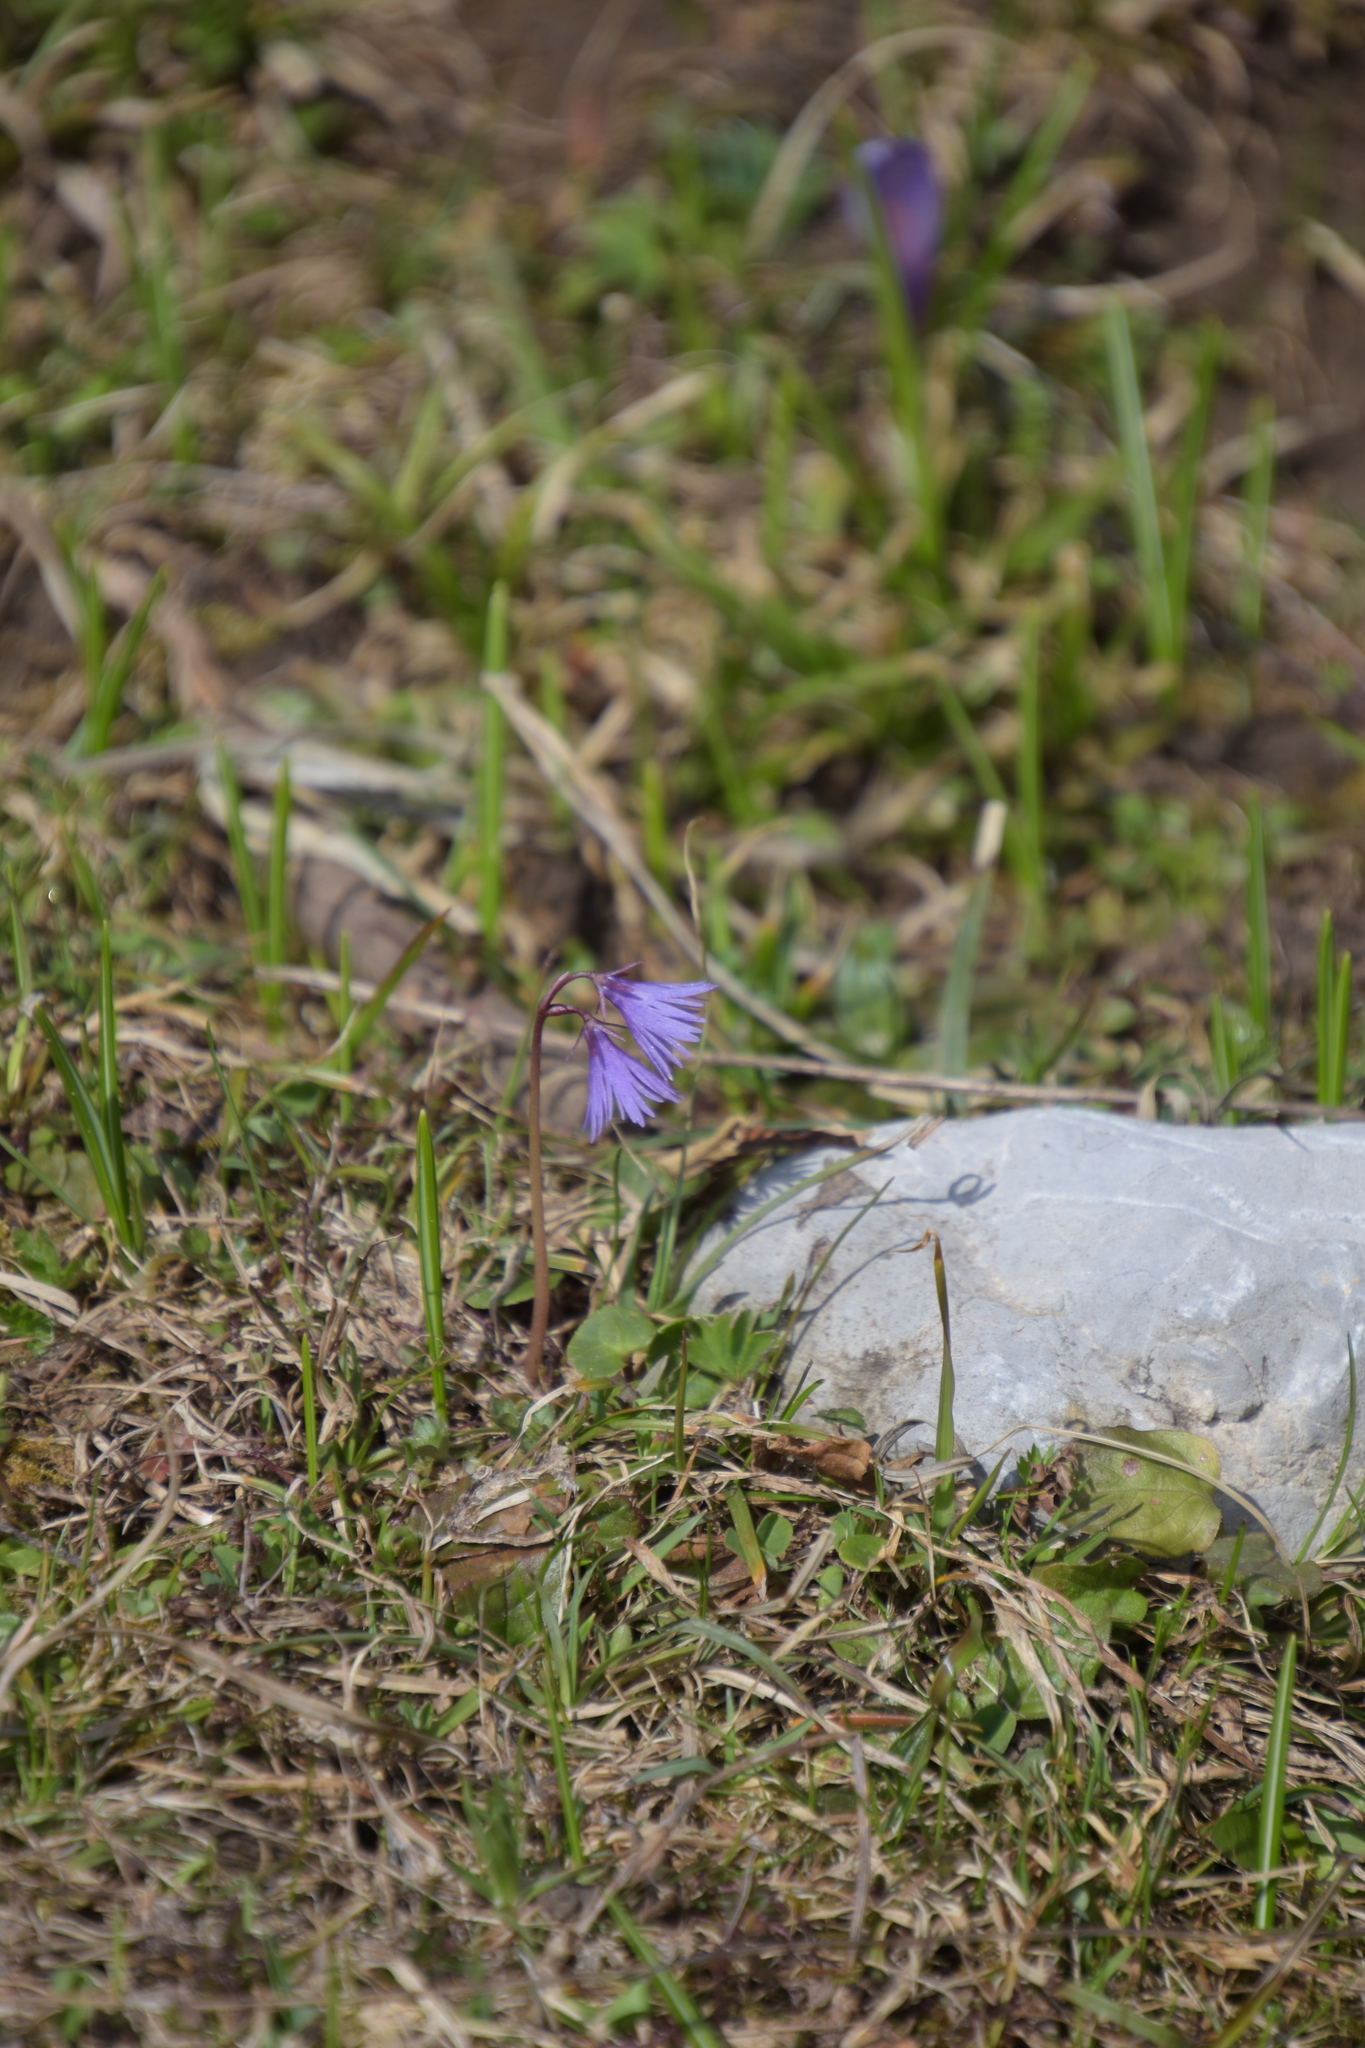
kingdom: Plantae
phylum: Tracheophyta
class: Magnoliopsida
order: Ericales
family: Primulaceae
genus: Soldanella
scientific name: Soldanella alpina
